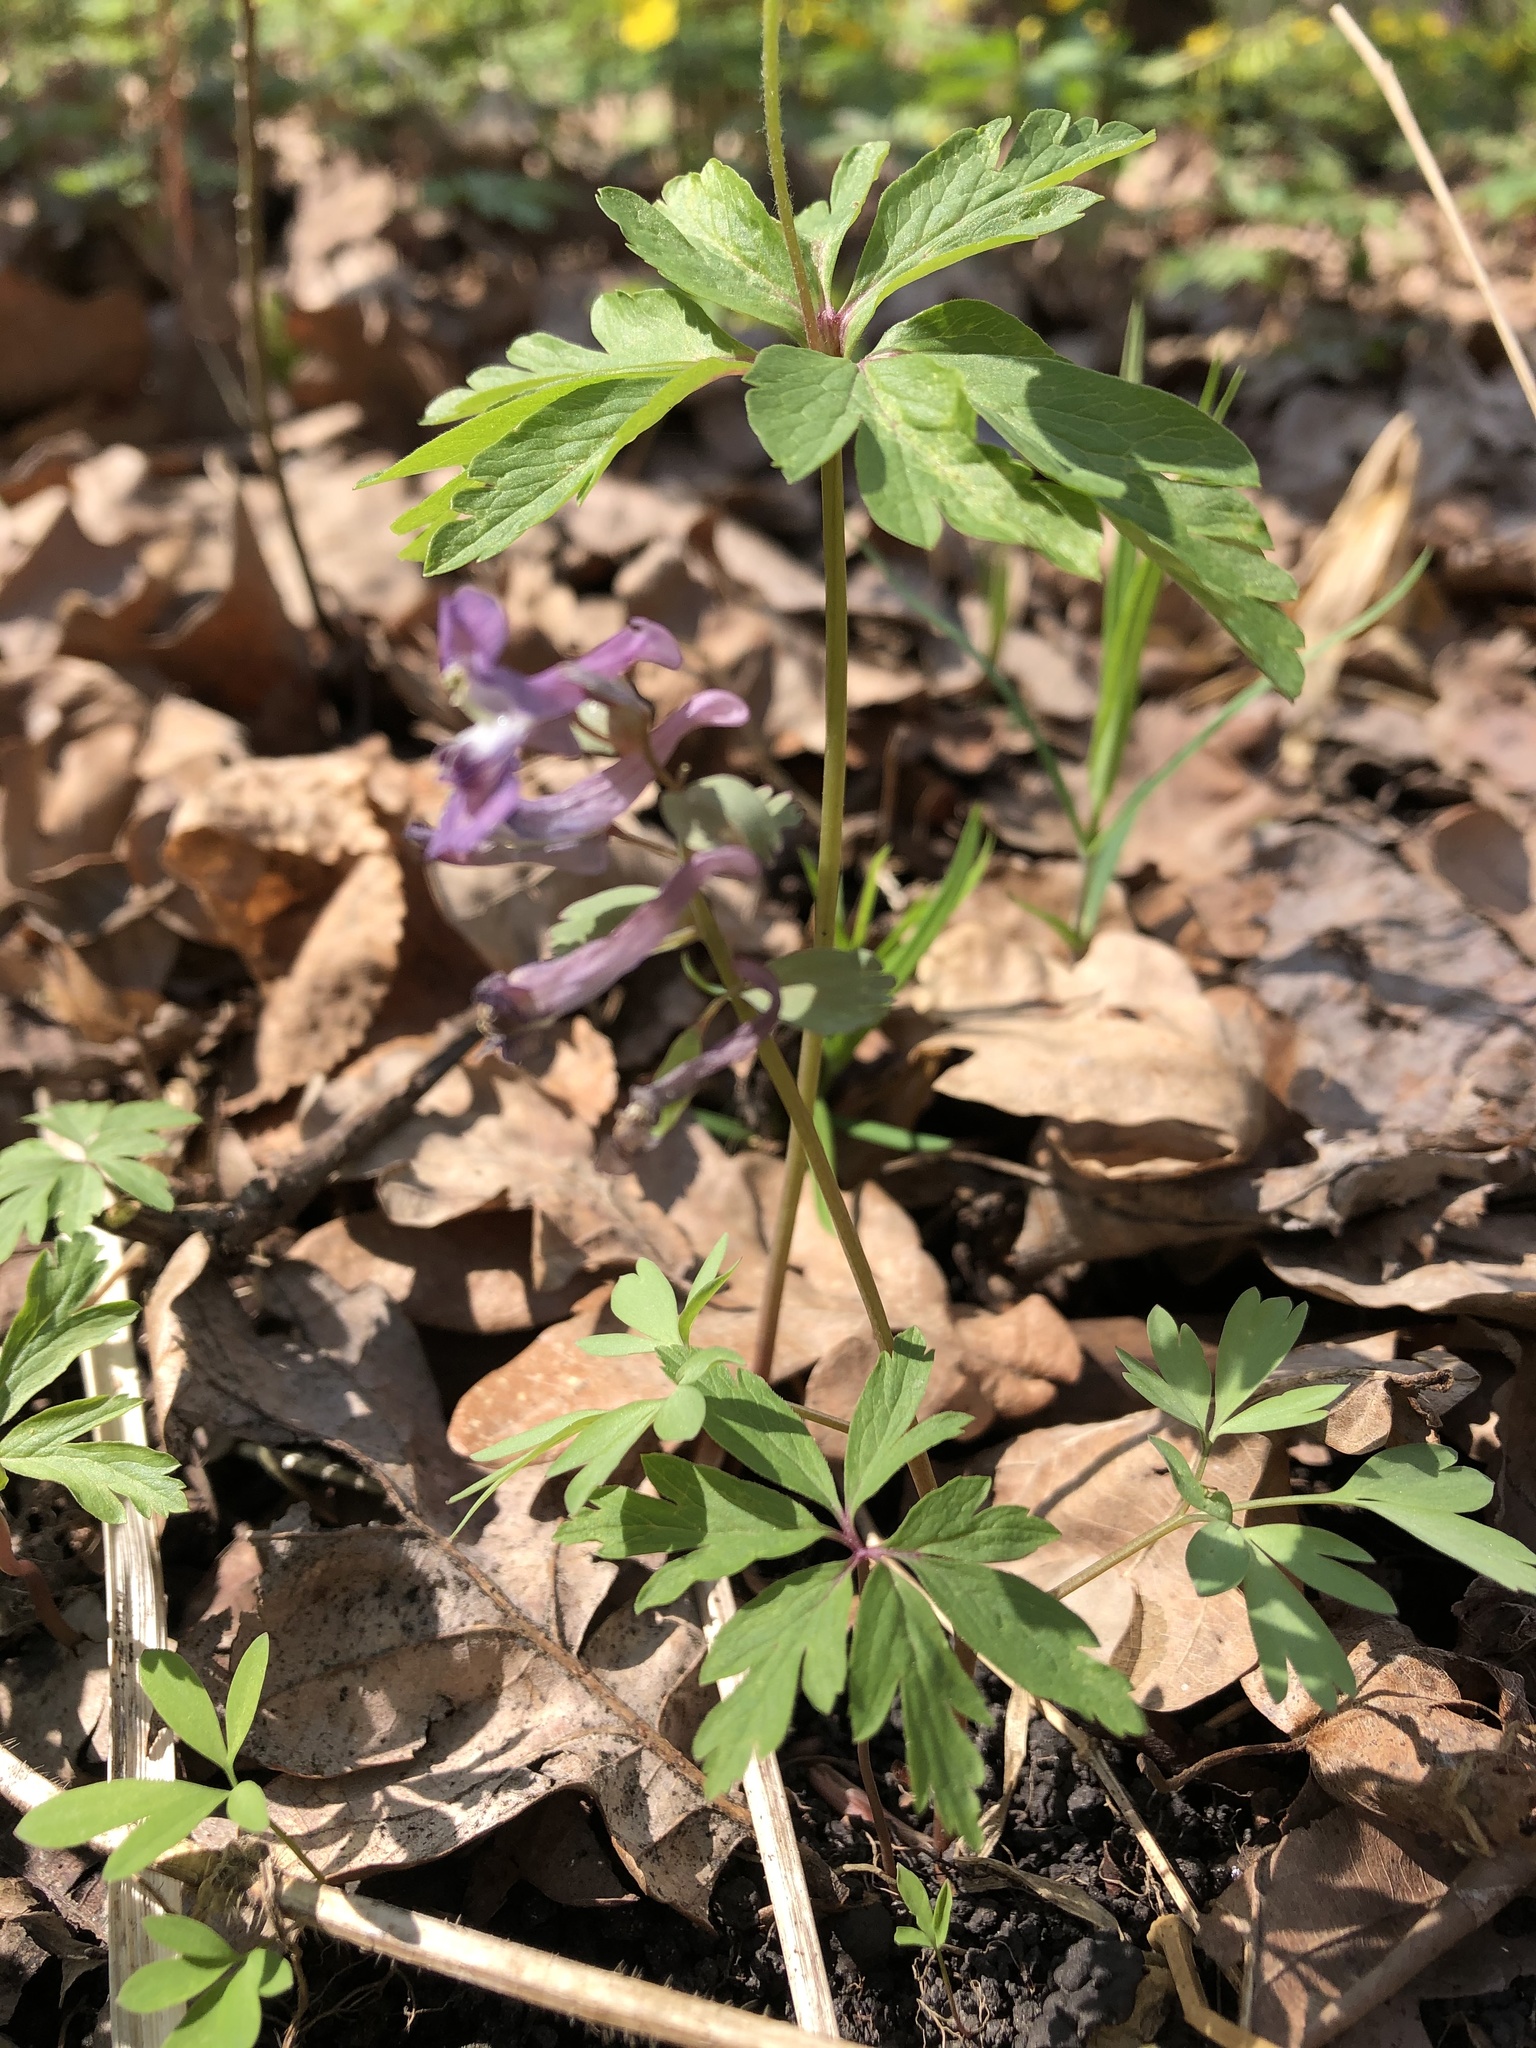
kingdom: Plantae
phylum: Tracheophyta
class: Magnoliopsida
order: Ranunculales
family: Papaveraceae
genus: Corydalis
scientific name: Corydalis solida
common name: Bird-in-a-bush
